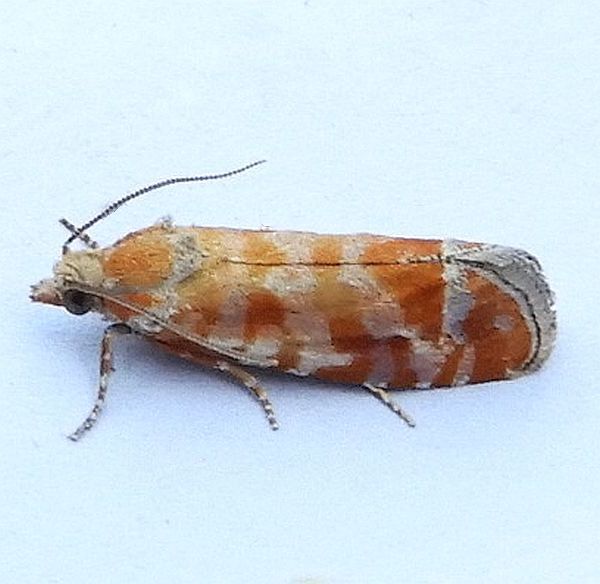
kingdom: Animalia
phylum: Arthropoda
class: Insecta
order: Lepidoptera
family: Tortricidae
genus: Rhyacionia
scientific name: Rhyacionia buoliana
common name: European pine shoot moth
